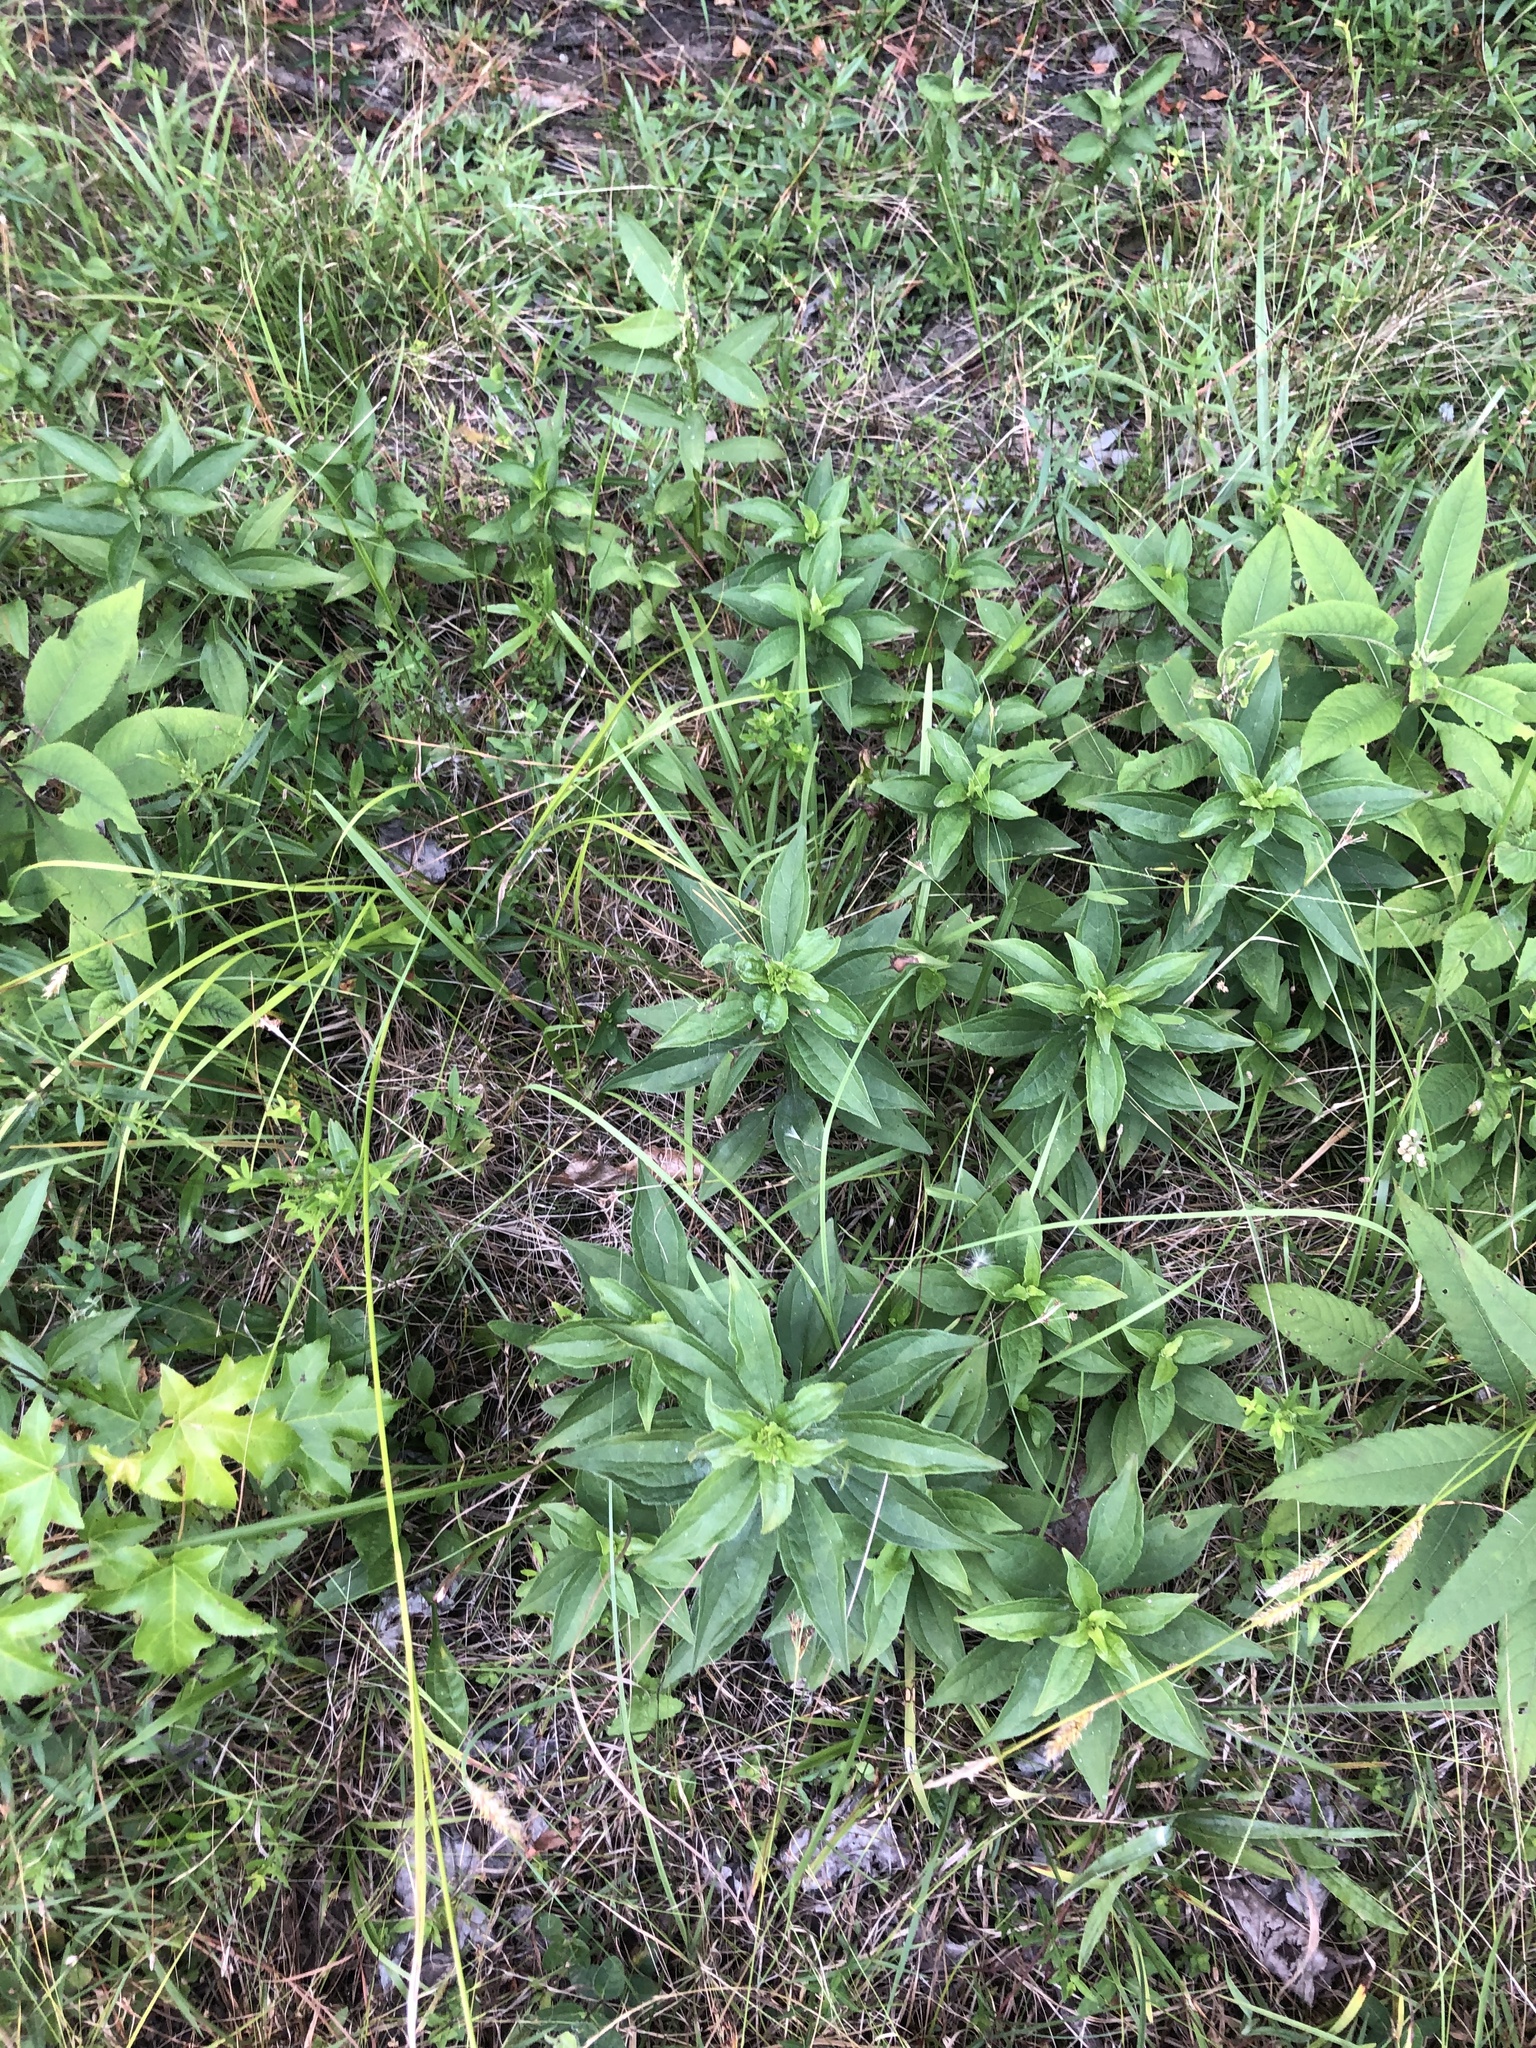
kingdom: Plantae
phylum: Tracheophyta
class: Magnoliopsida
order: Asterales
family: Asteraceae
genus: Rudbeckia
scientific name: Rudbeckia terranigrae
